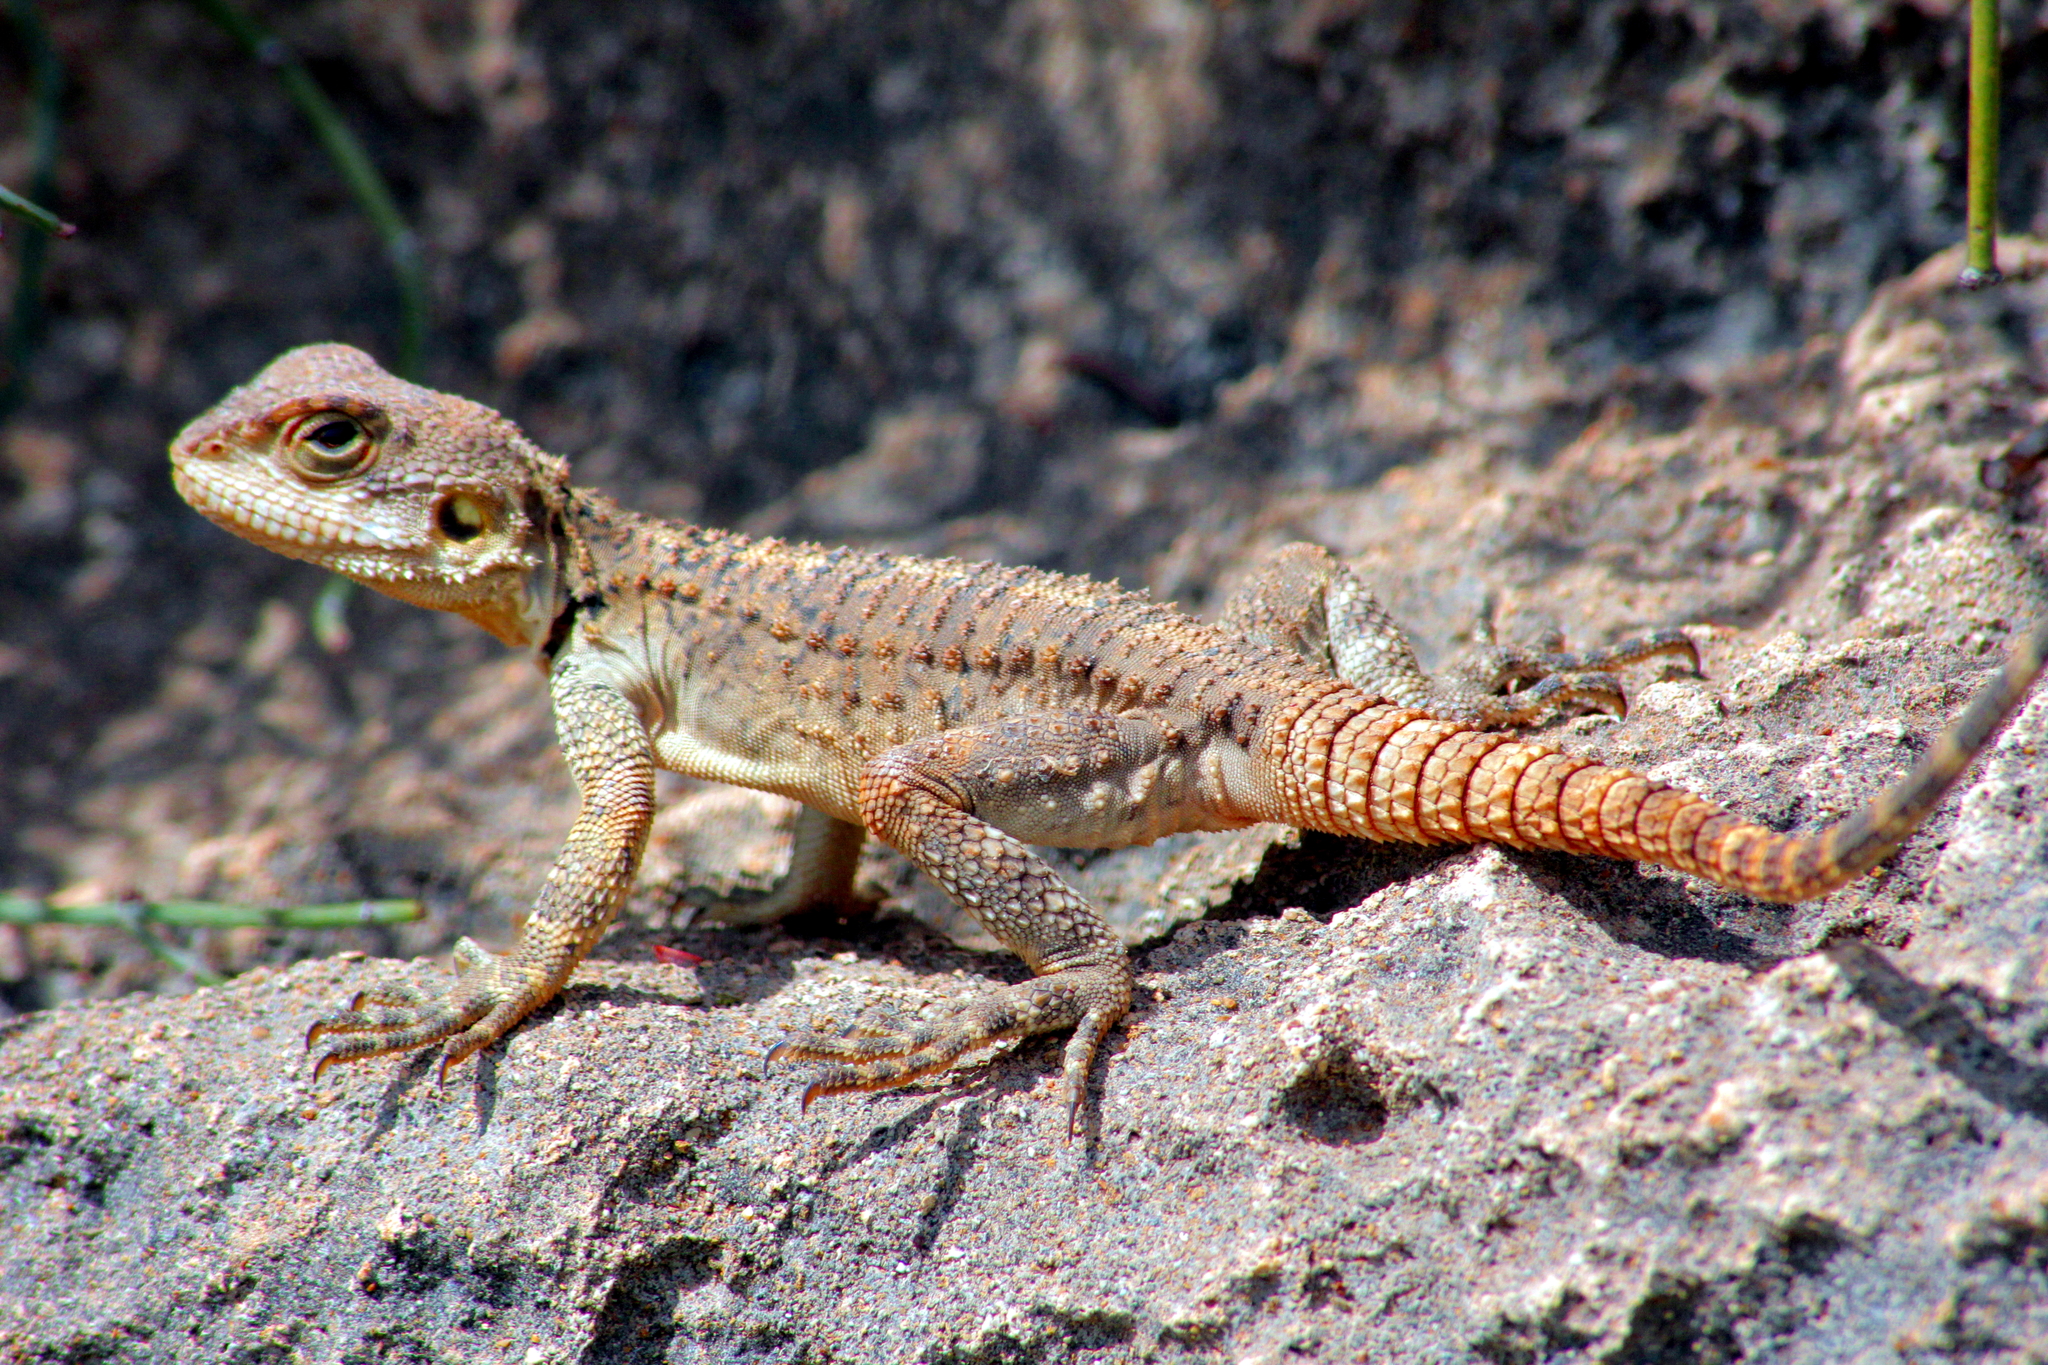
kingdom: Animalia
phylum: Chordata
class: Squamata
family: Agamidae
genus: Laudakia
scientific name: Laudakia
